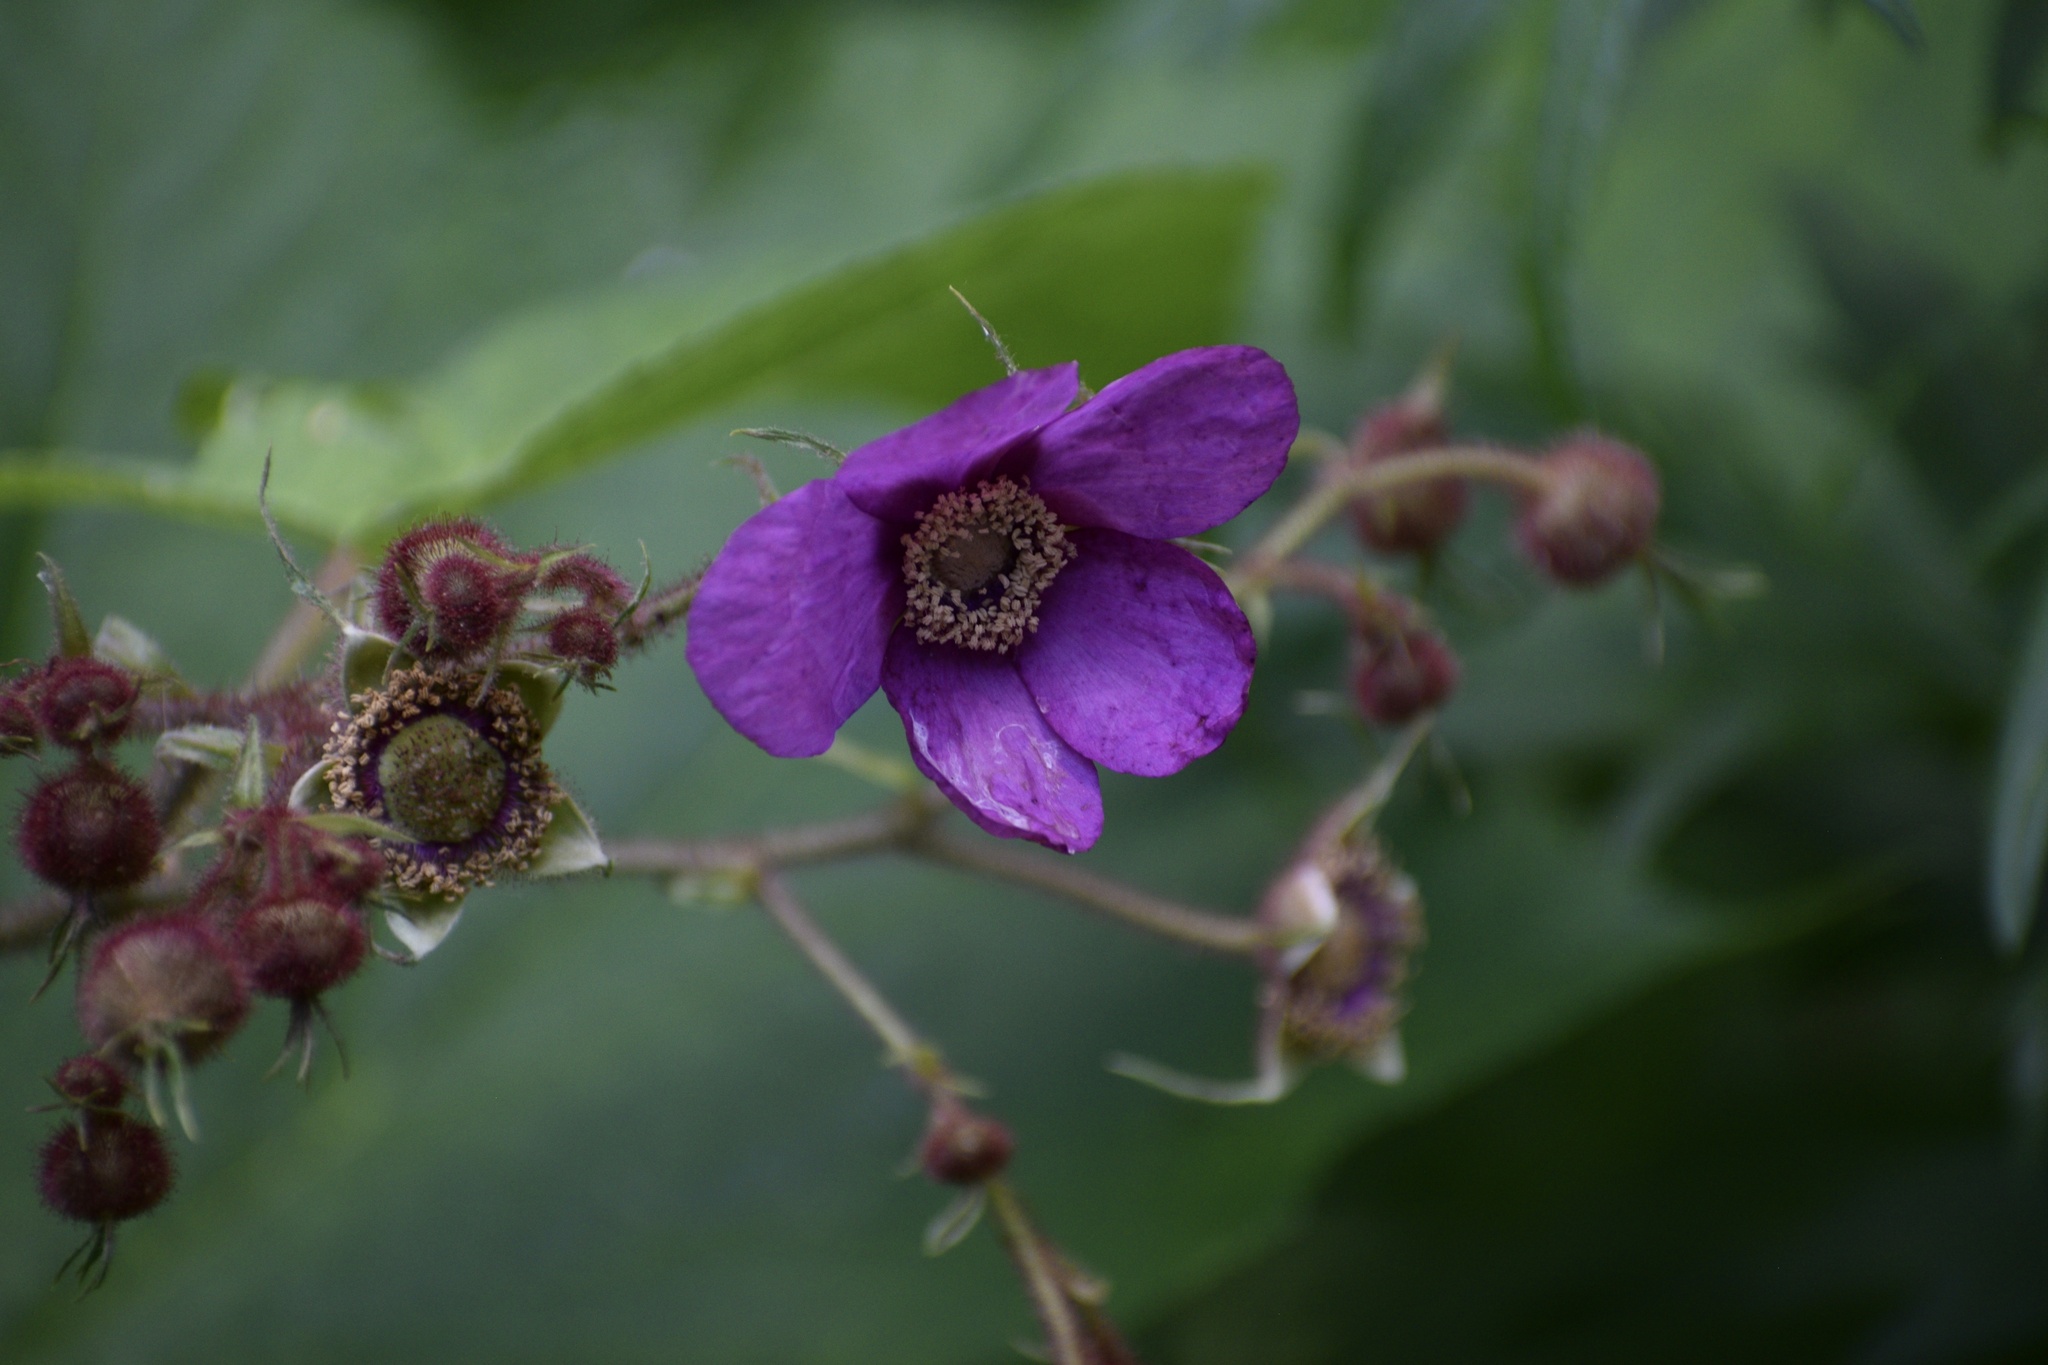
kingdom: Plantae
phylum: Tracheophyta
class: Magnoliopsida
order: Rosales
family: Rosaceae
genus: Rubus
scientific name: Rubus odoratus
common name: Purple-flowered raspberry
